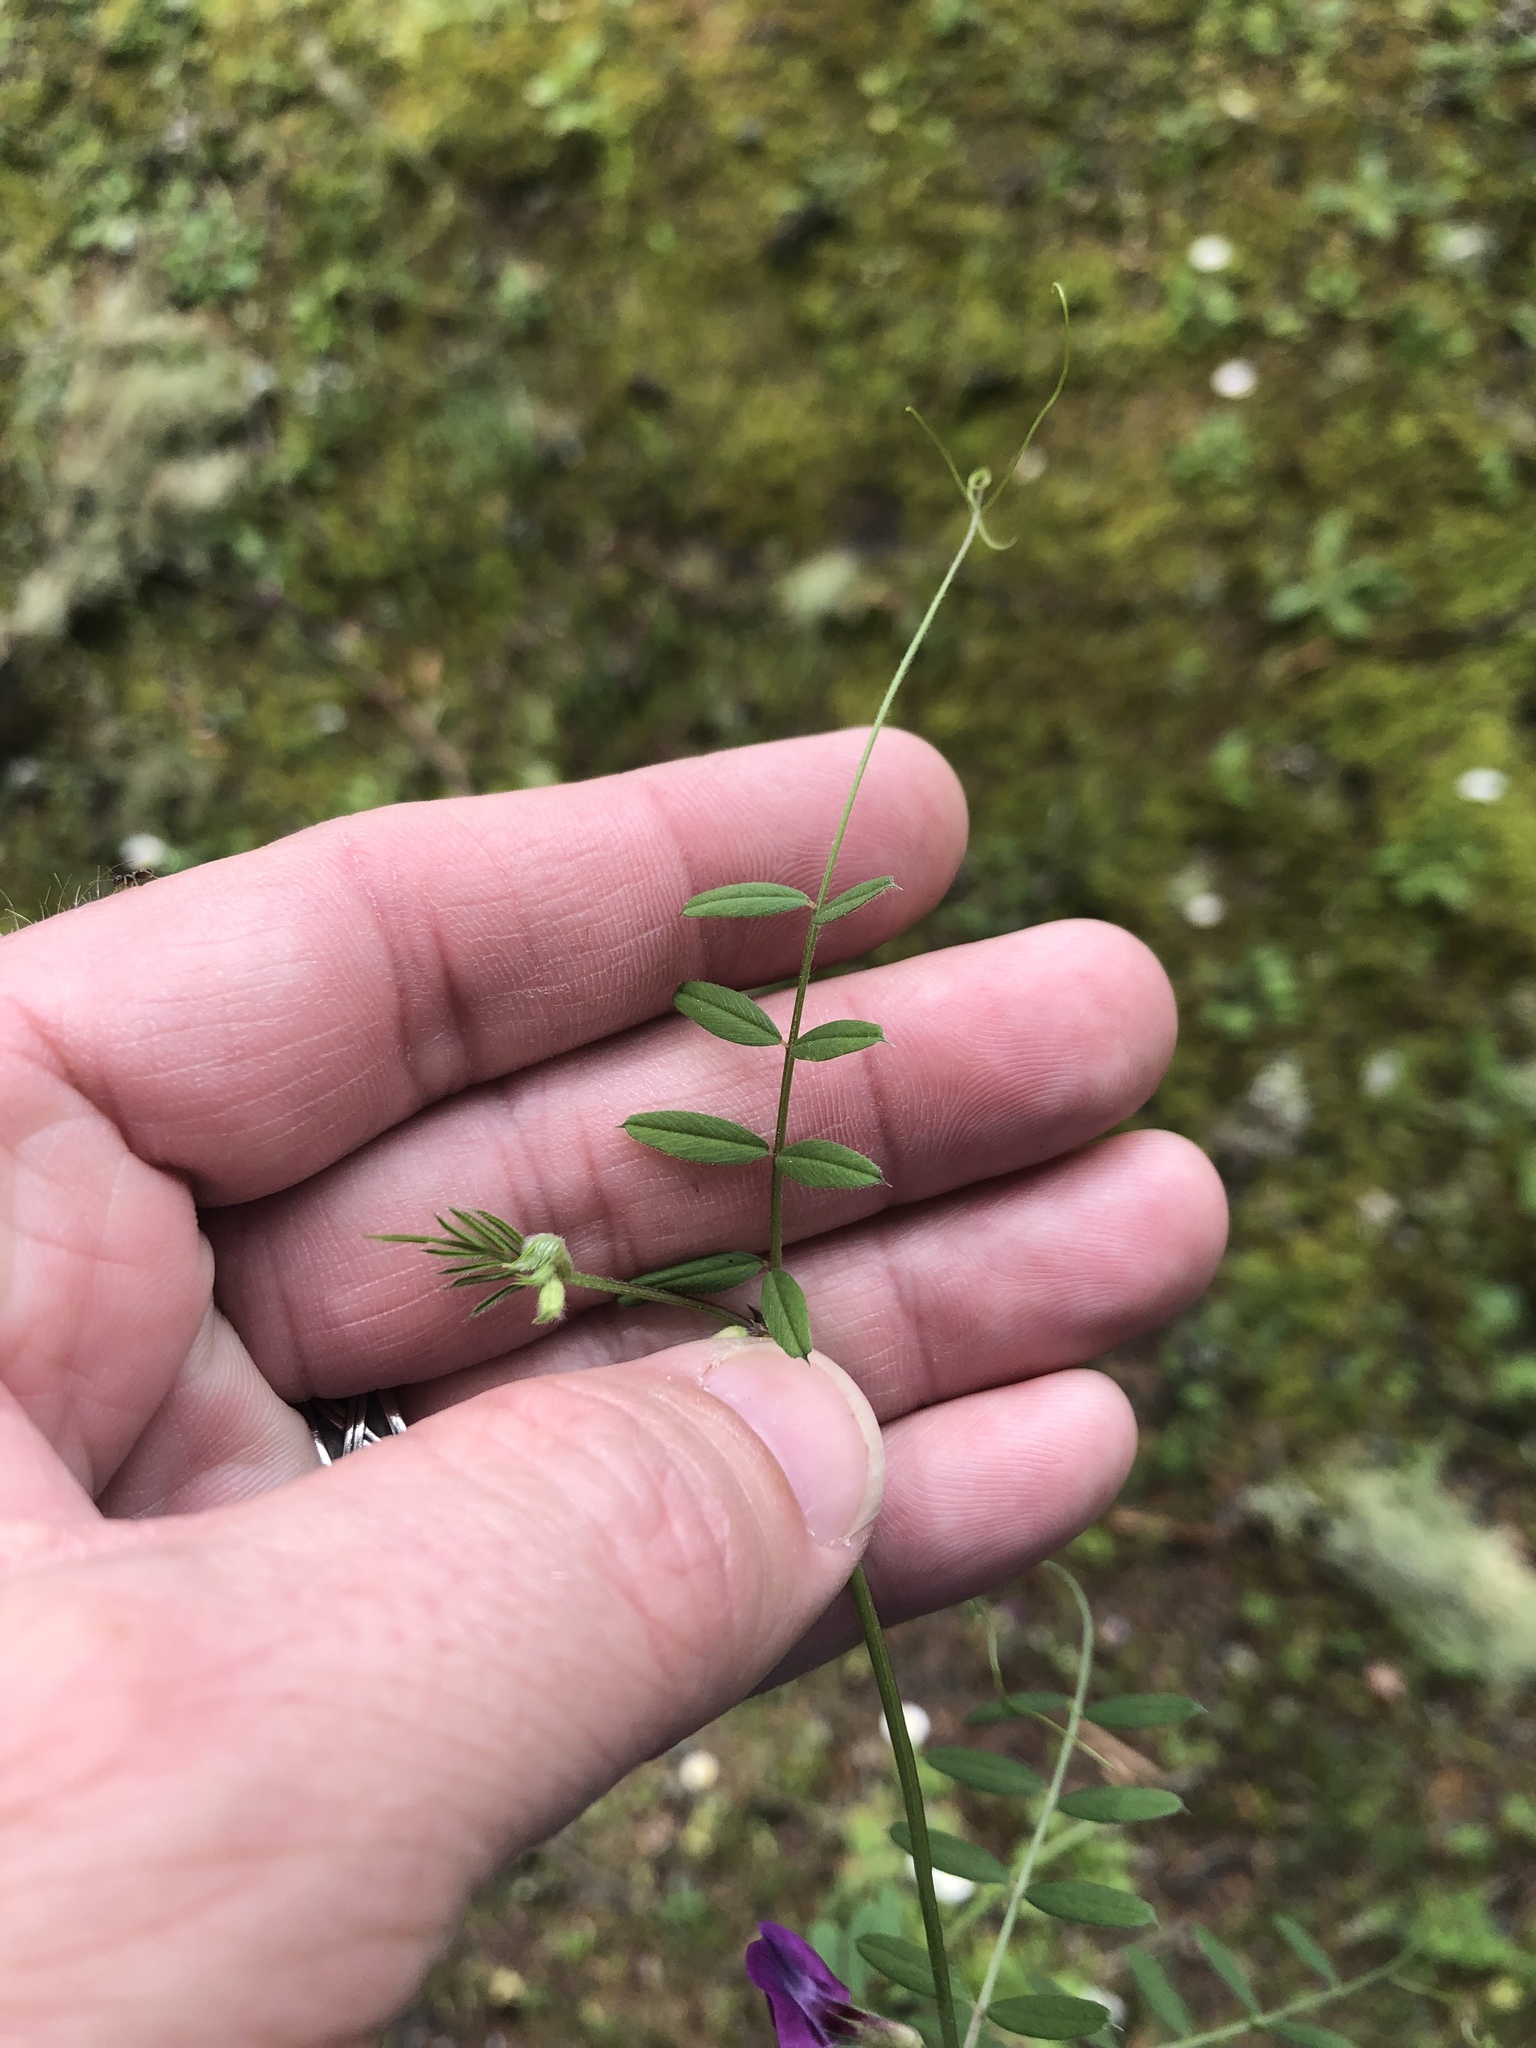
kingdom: Plantae
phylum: Tracheophyta
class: Magnoliopsida
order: Fabales
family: Fabaceae
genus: Vicia
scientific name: Vicia sativa
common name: Garden vetch
